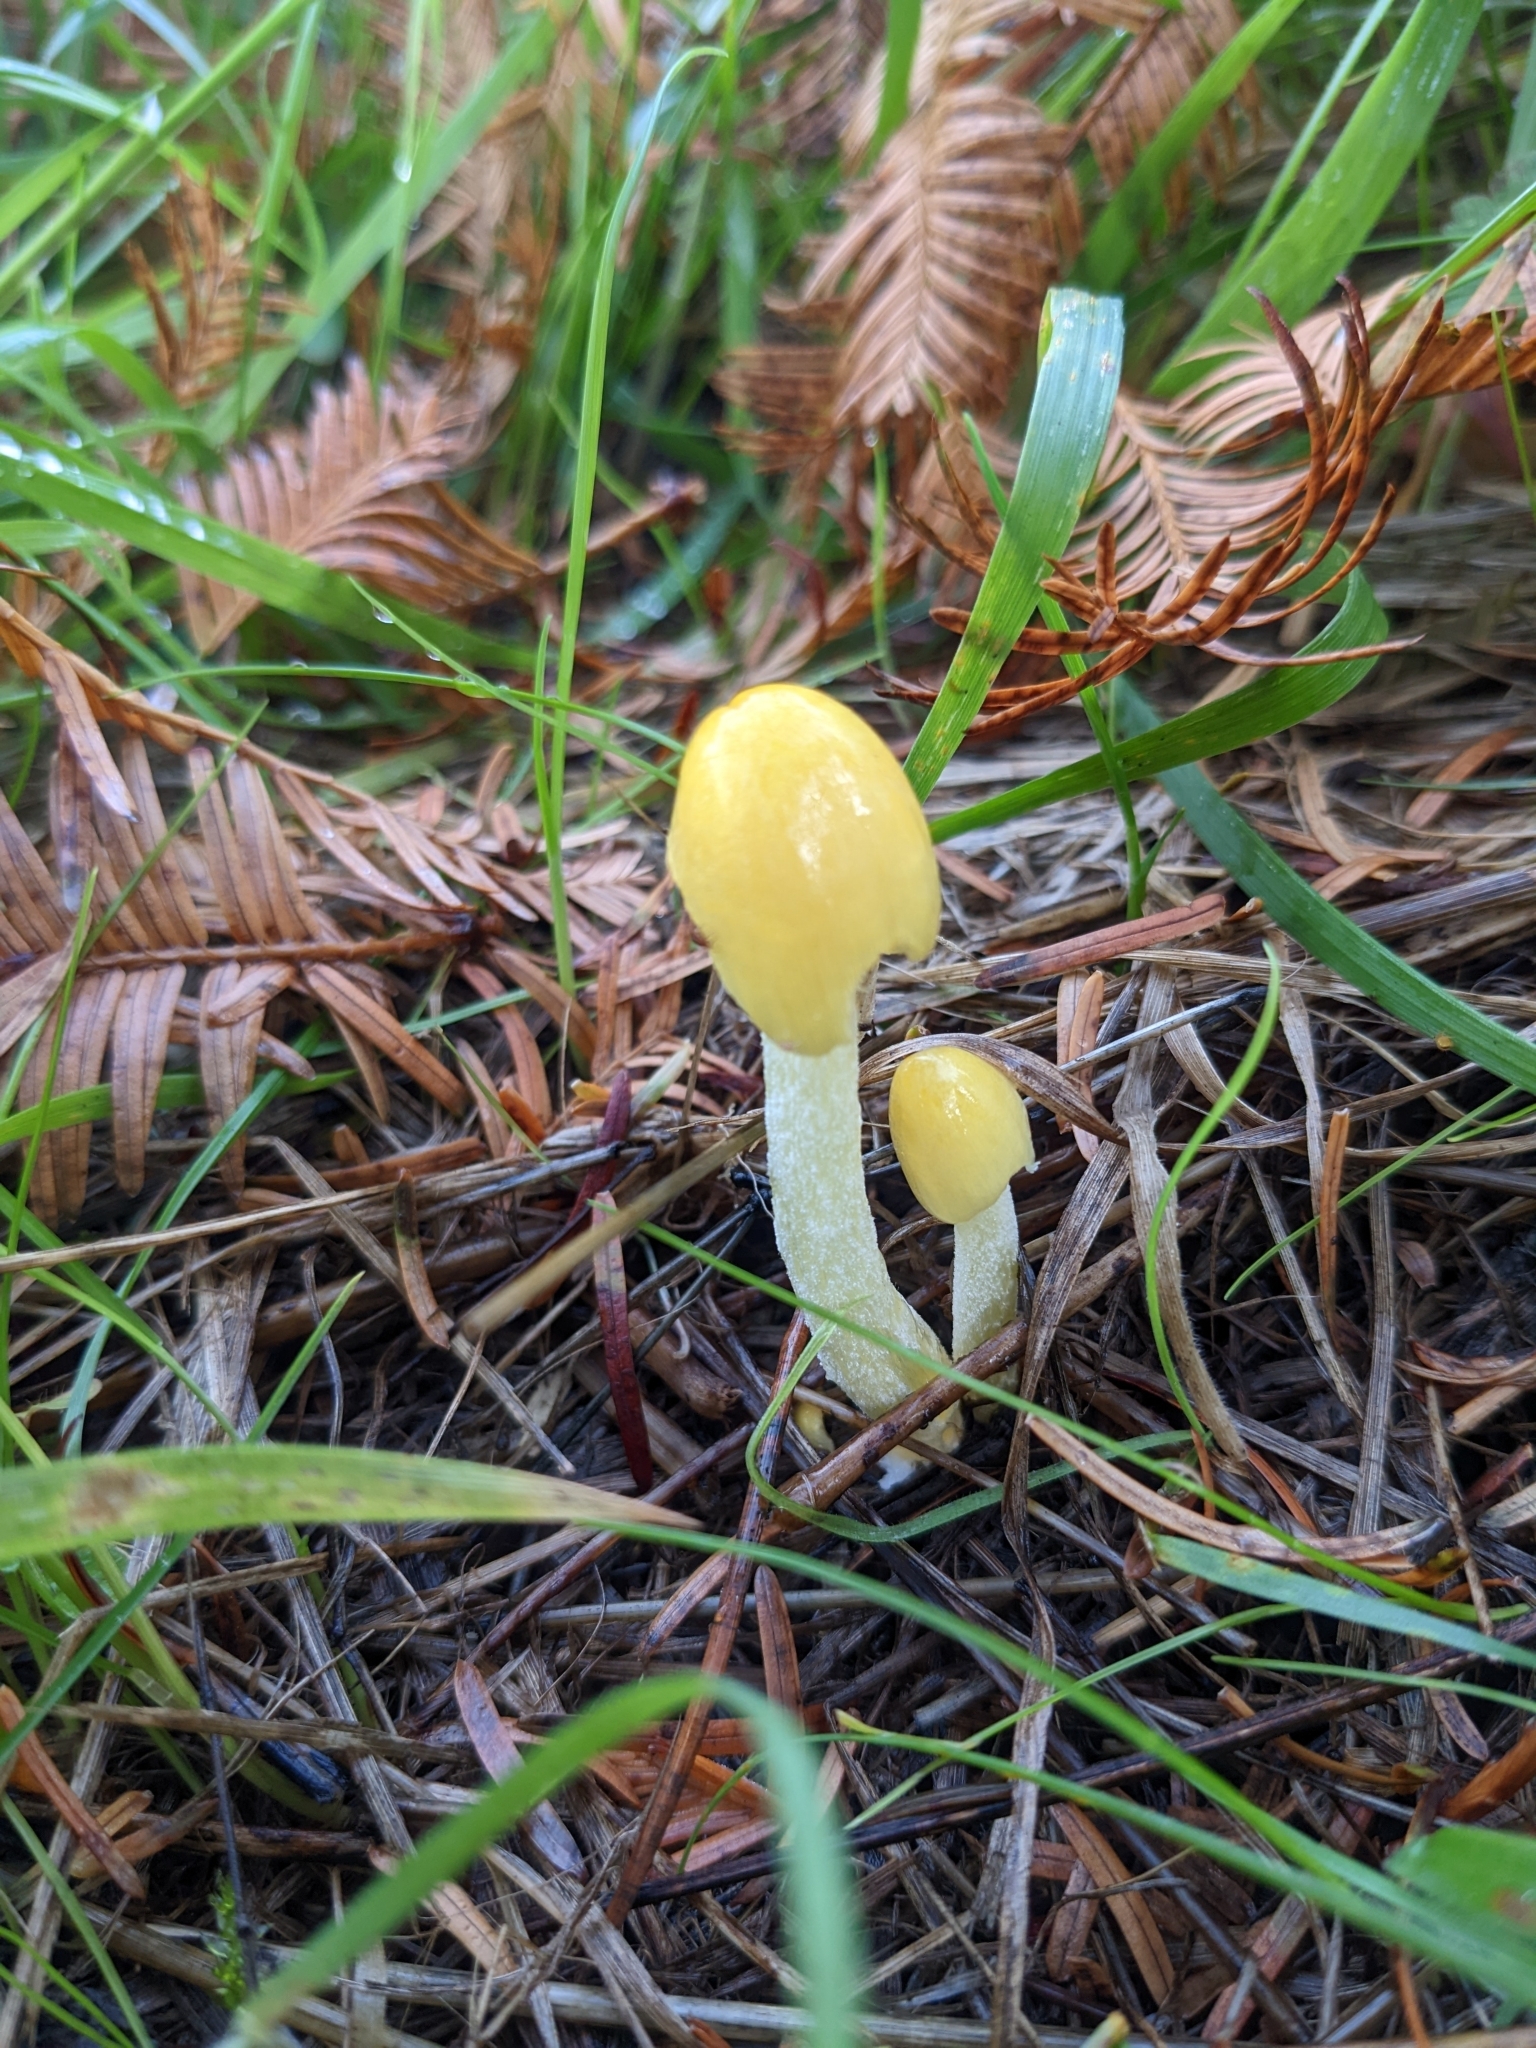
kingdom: Fungi
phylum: Basidiomycota
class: Agaricomycetes
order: Agaricales
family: Bolbitiaceae
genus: Bolbitius
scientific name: Bolbitius titubans
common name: Yellow fieldcap
